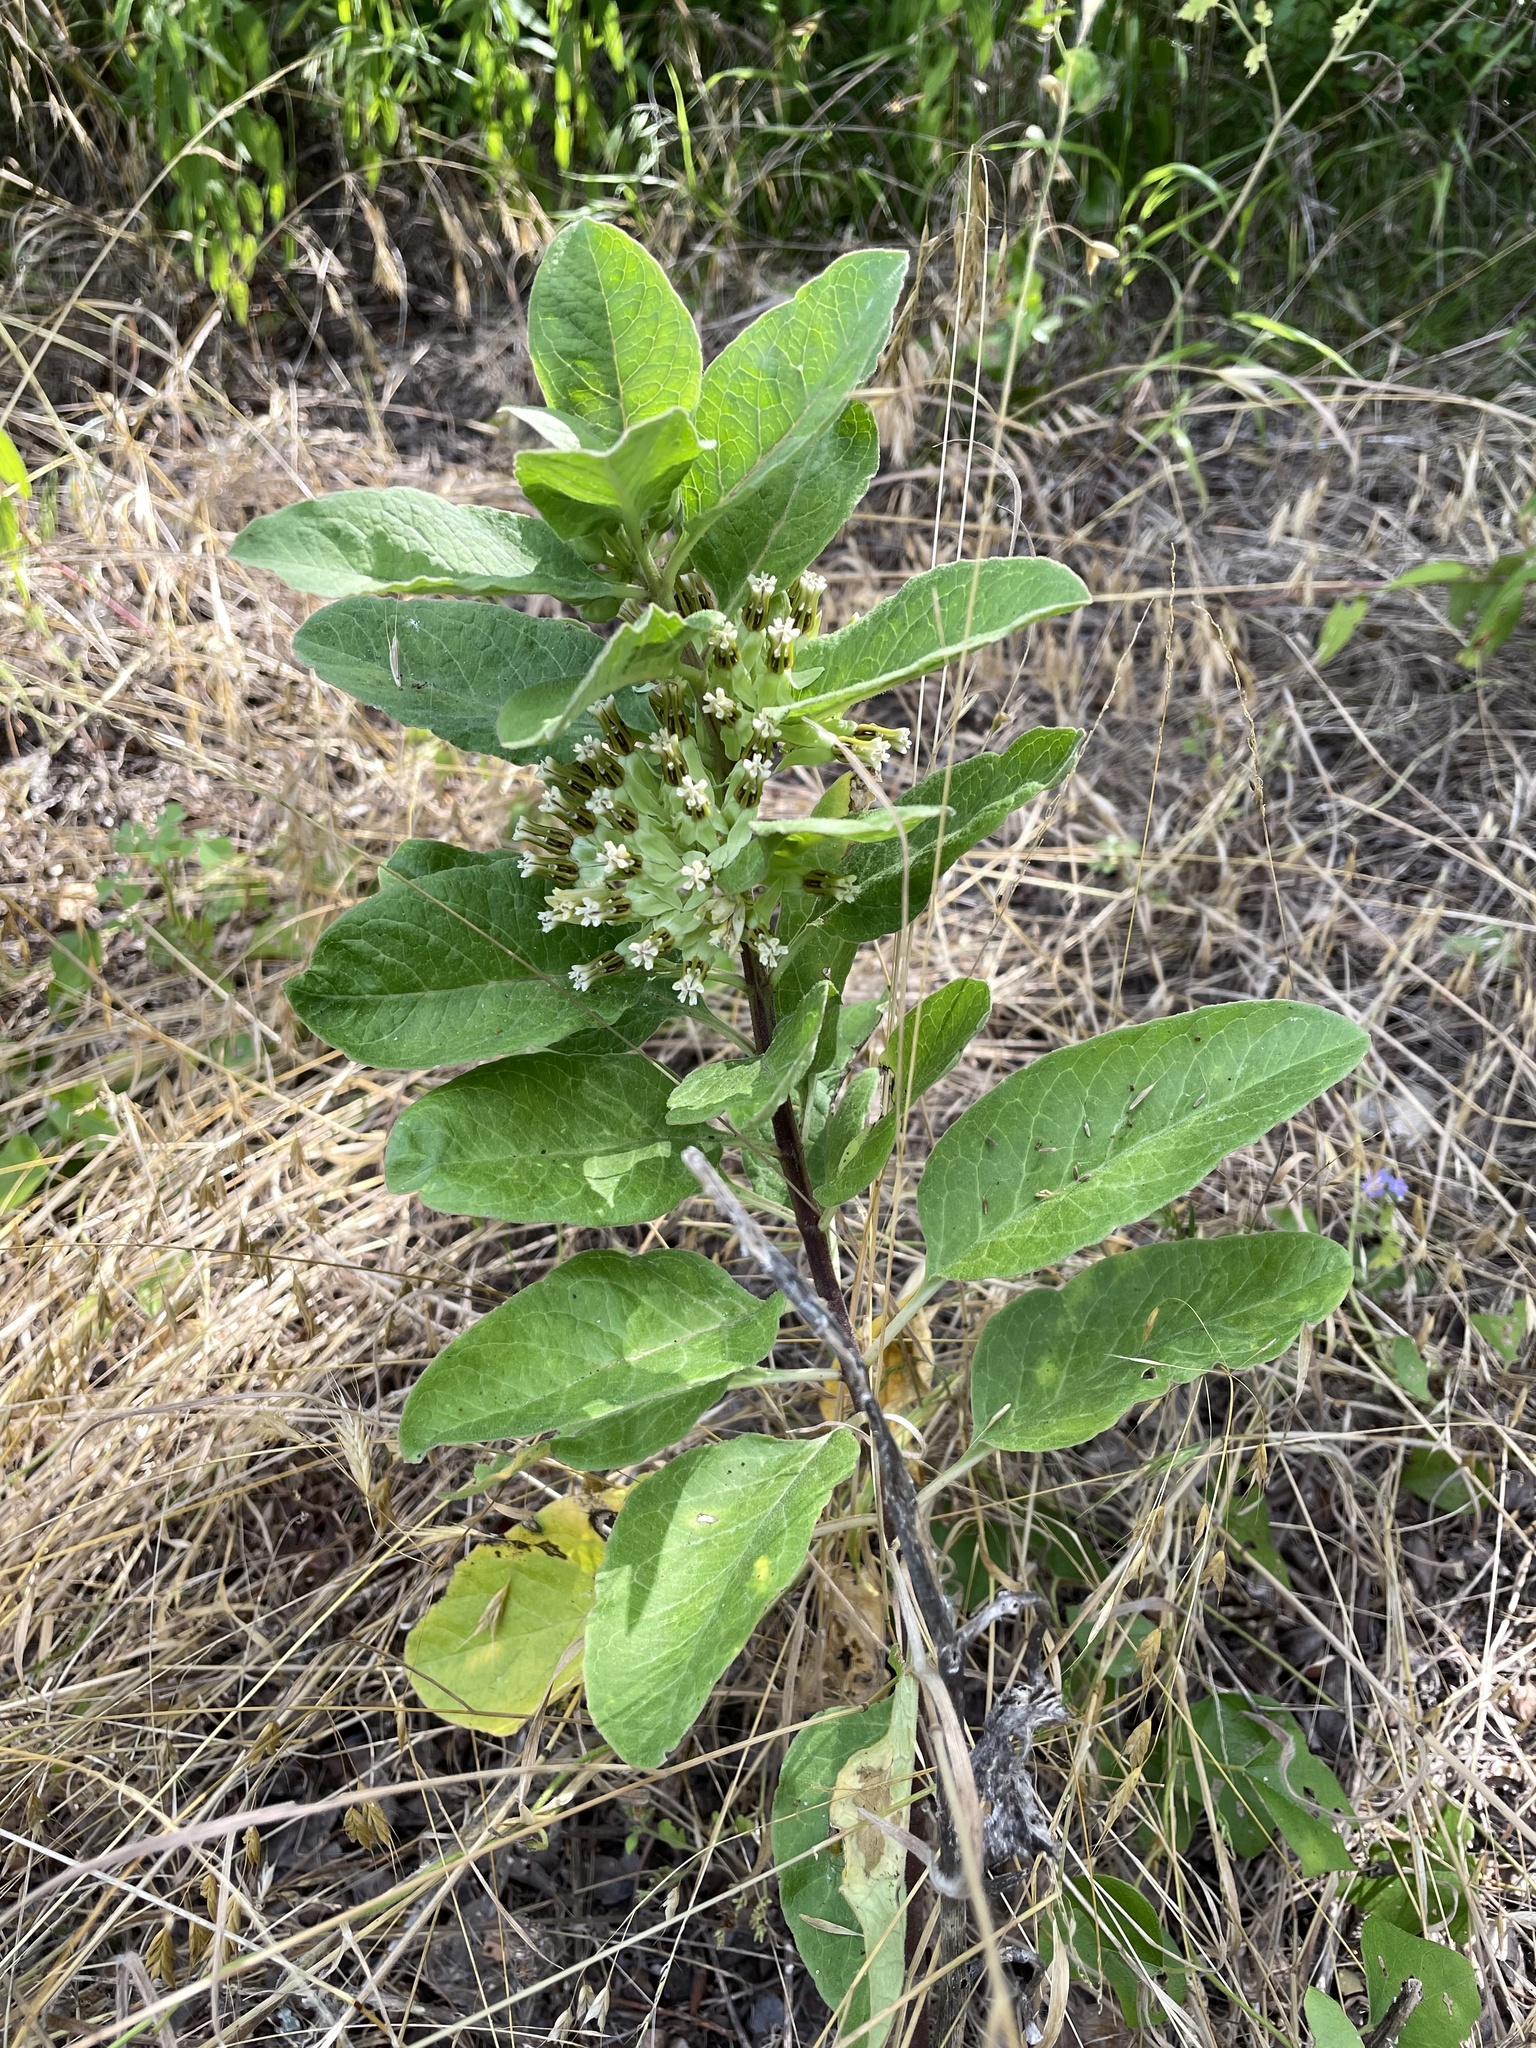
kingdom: Plantae
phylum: Tracheophyta
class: Magnoliopsida
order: Gentianales
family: Apocynaceae
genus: Asclepias
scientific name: Asclepias oenotheroides
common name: Zizotes milkweed
